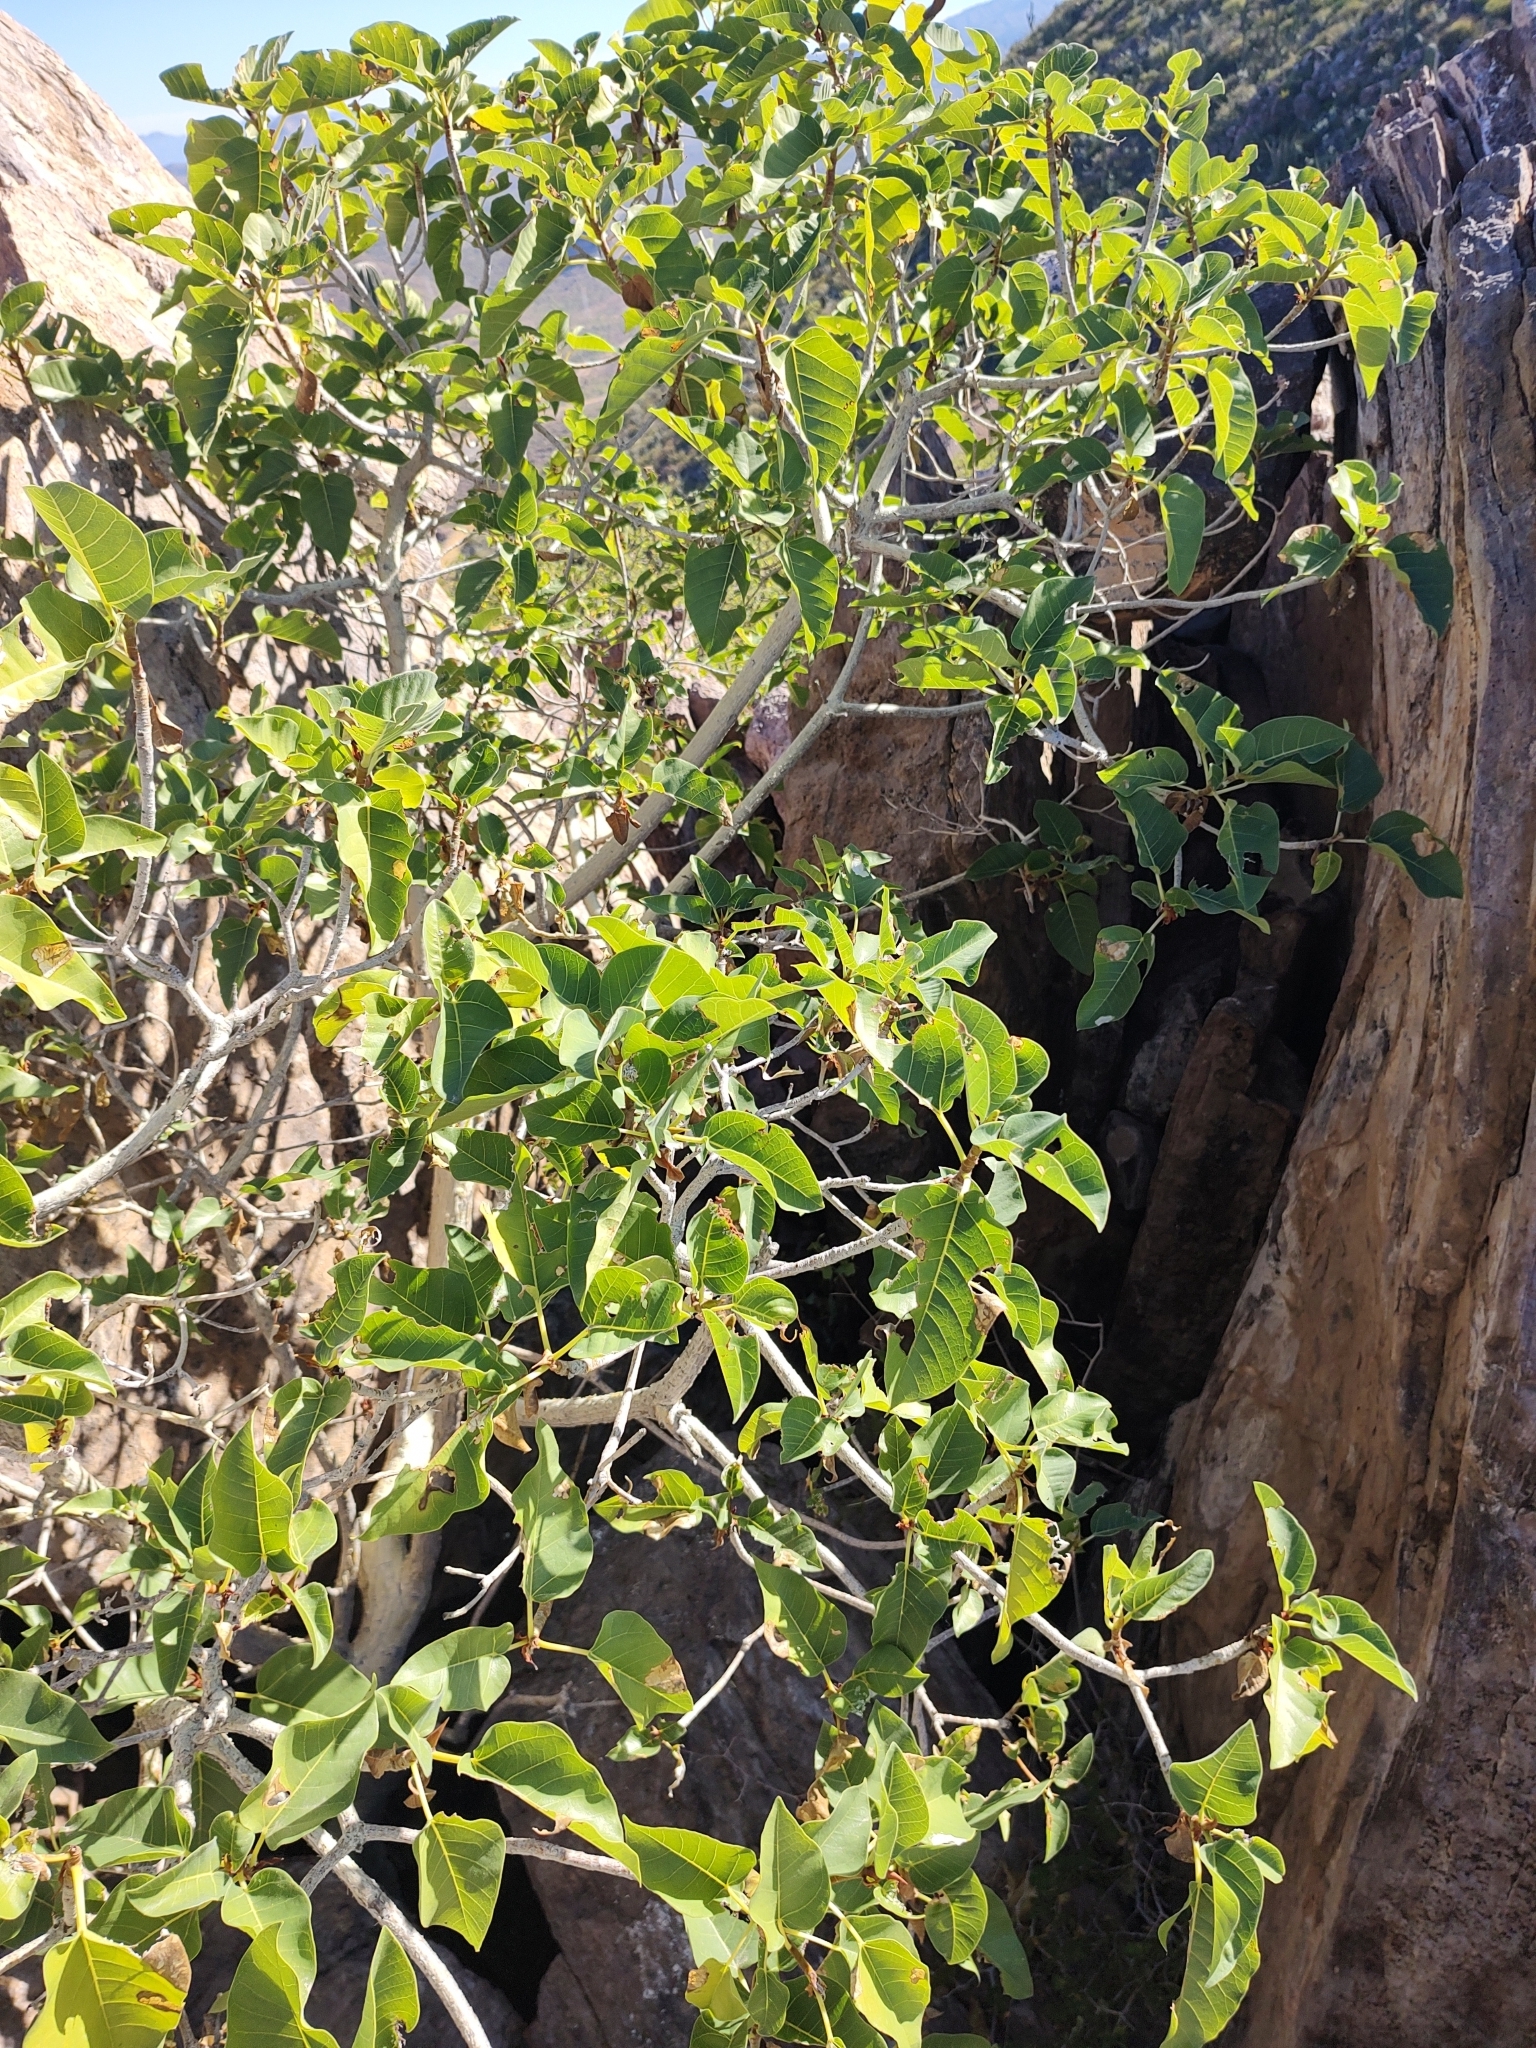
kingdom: Plantae
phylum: Tracheophyta
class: Magnoliopsida
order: Rosales
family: Moraceae
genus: Ficus
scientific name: Ficus petiolaris
